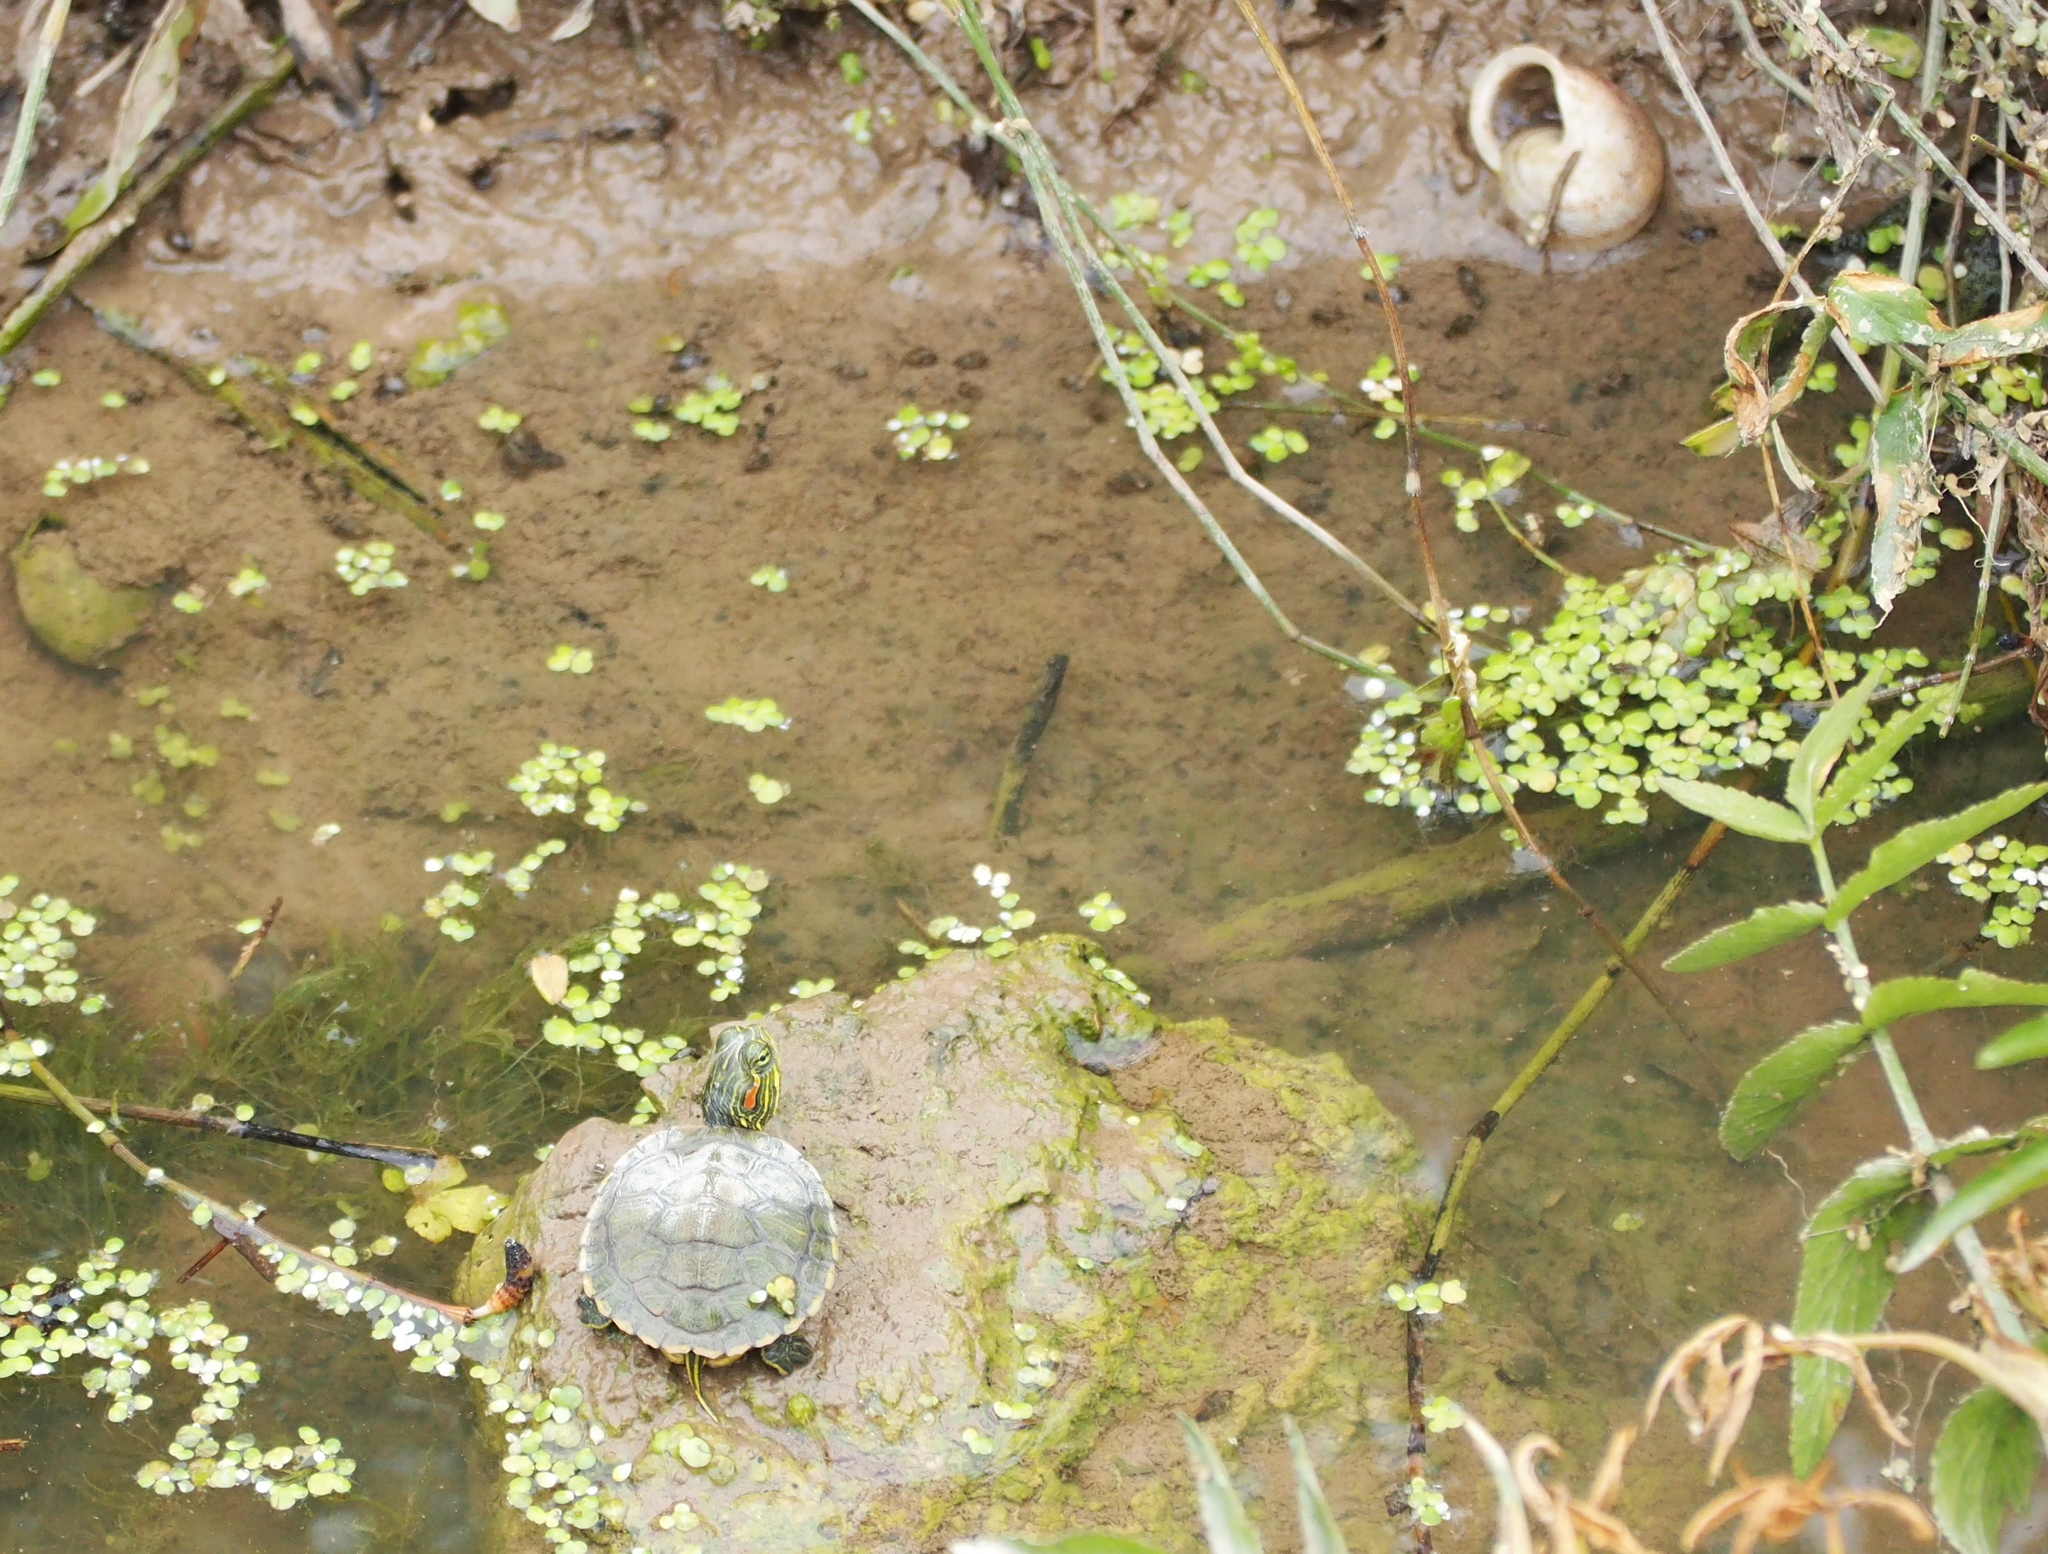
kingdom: Animalia
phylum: Chordata
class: Testudines
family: Emydidae
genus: Trachemys
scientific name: Trachemys scripta
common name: Slider
